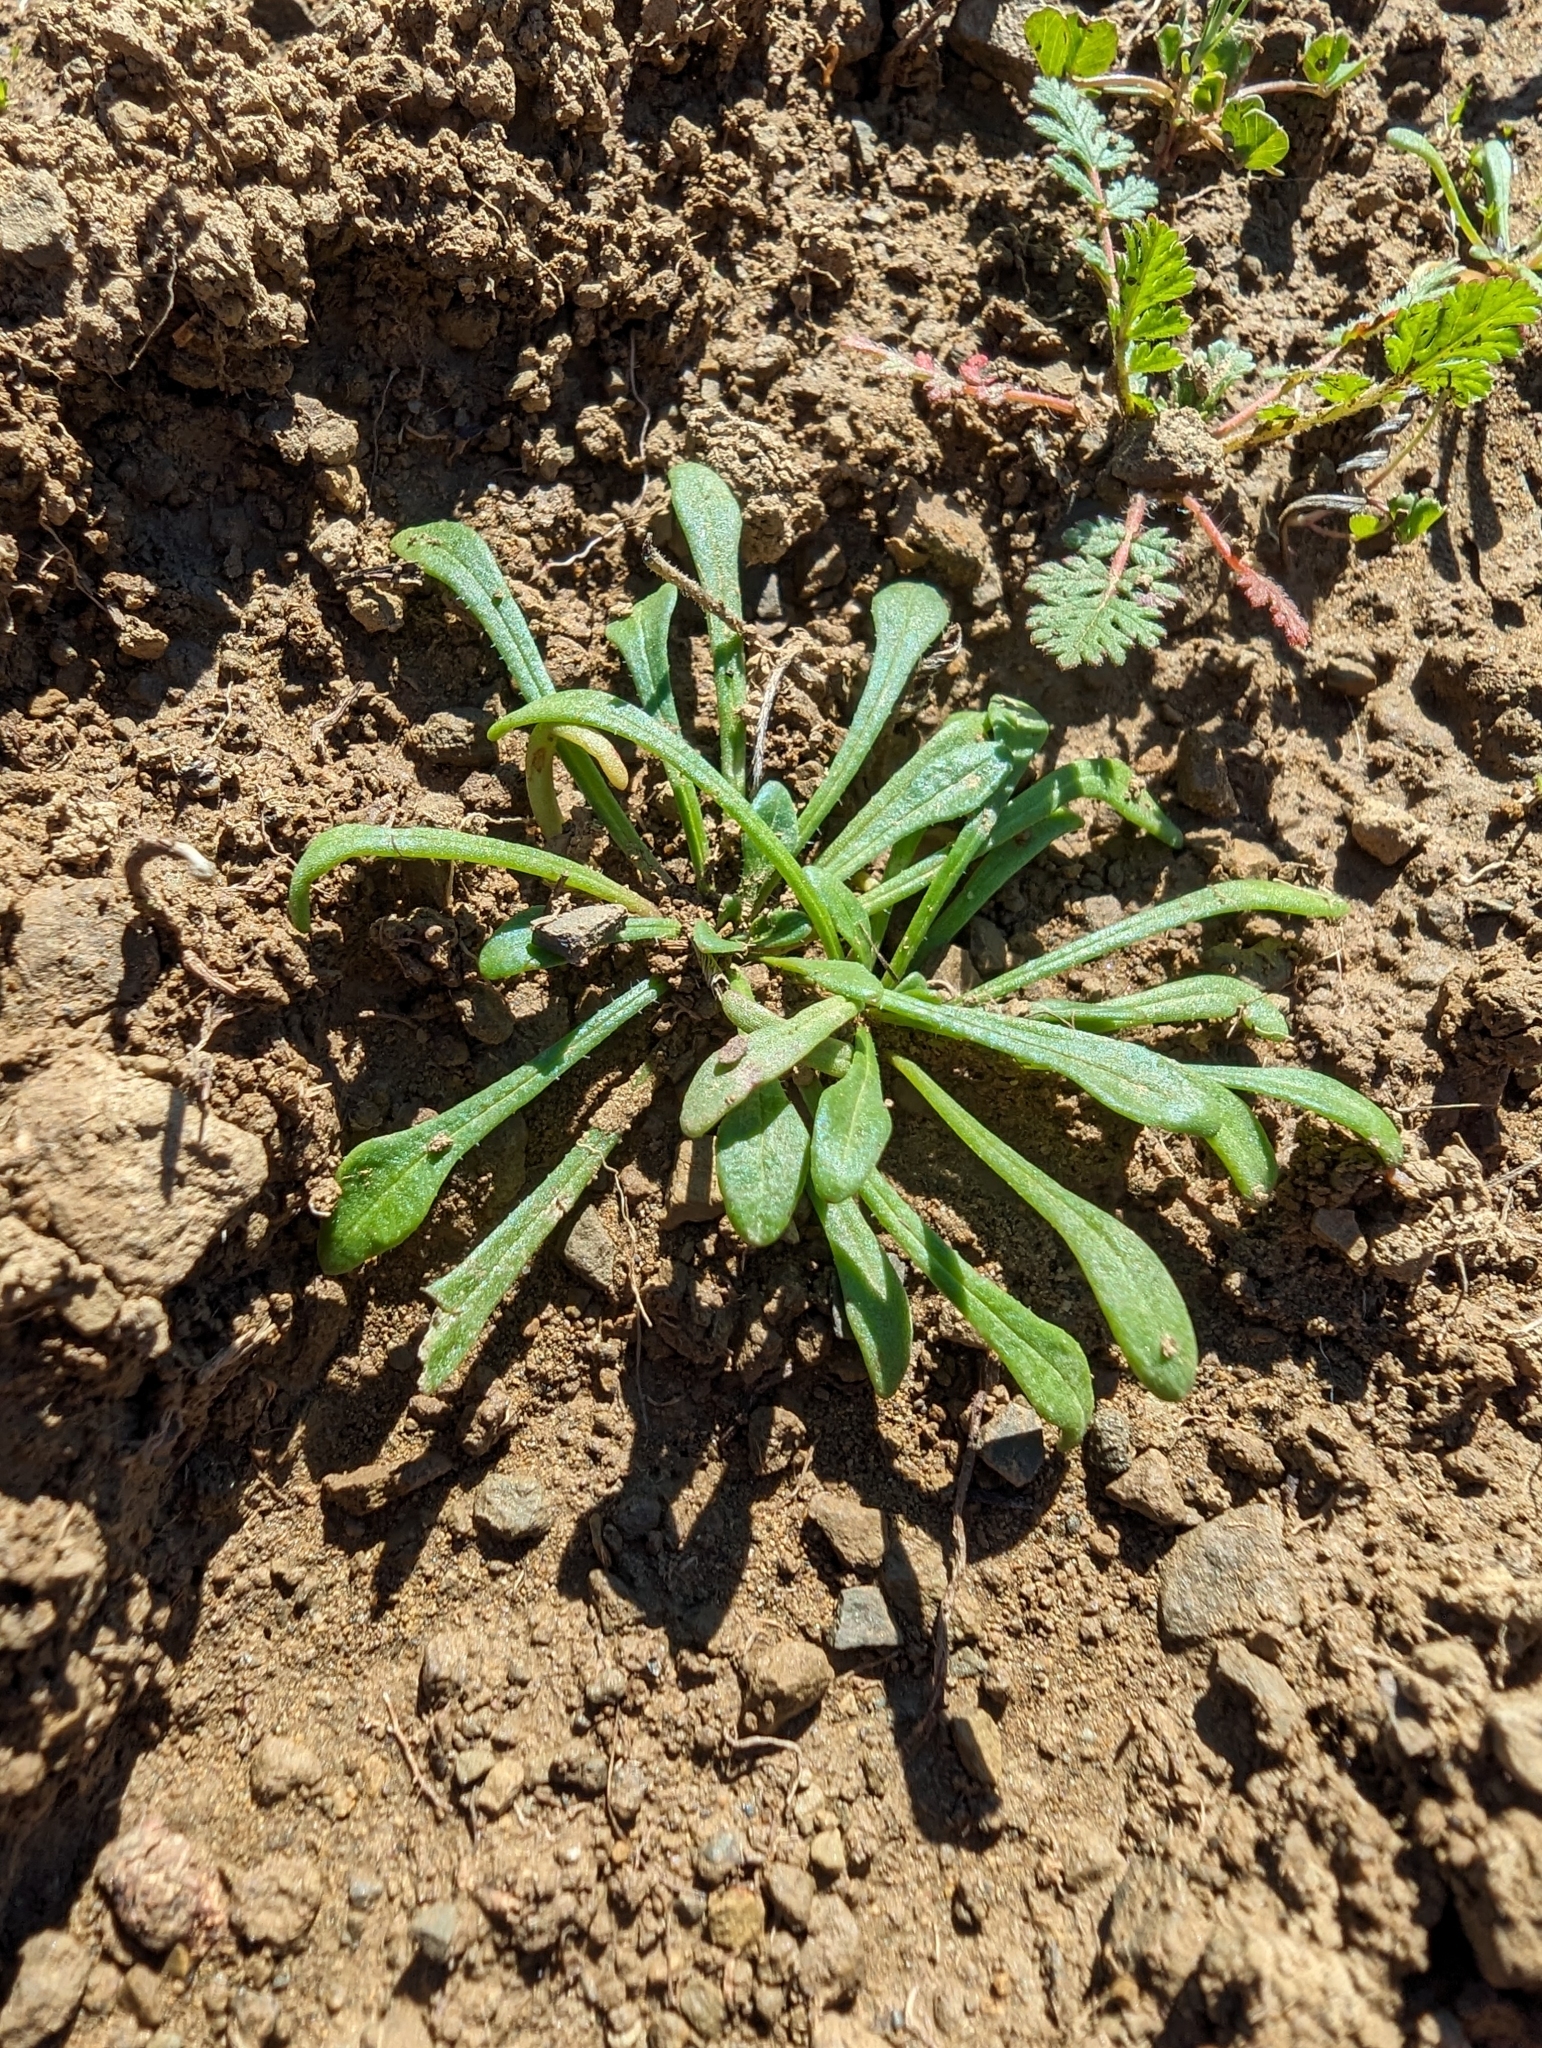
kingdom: Plantae
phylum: Tracheophyta
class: Magnoliopsida
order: Caryophyllales
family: Montiaceae
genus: Calandrinia
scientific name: Calandrinia menziesii
